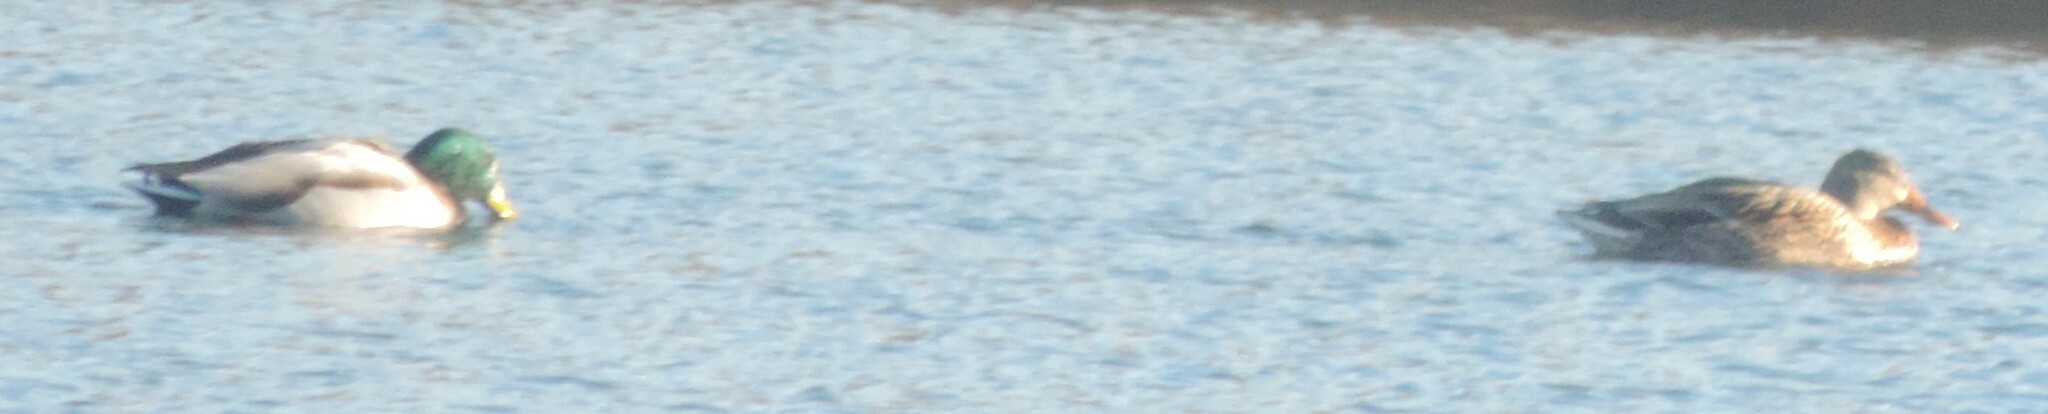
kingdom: Animalia
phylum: Chordata
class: Aves
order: Anseriformes
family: Anatidae
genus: Anas
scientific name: Anas platyrhynchos
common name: Mallard
